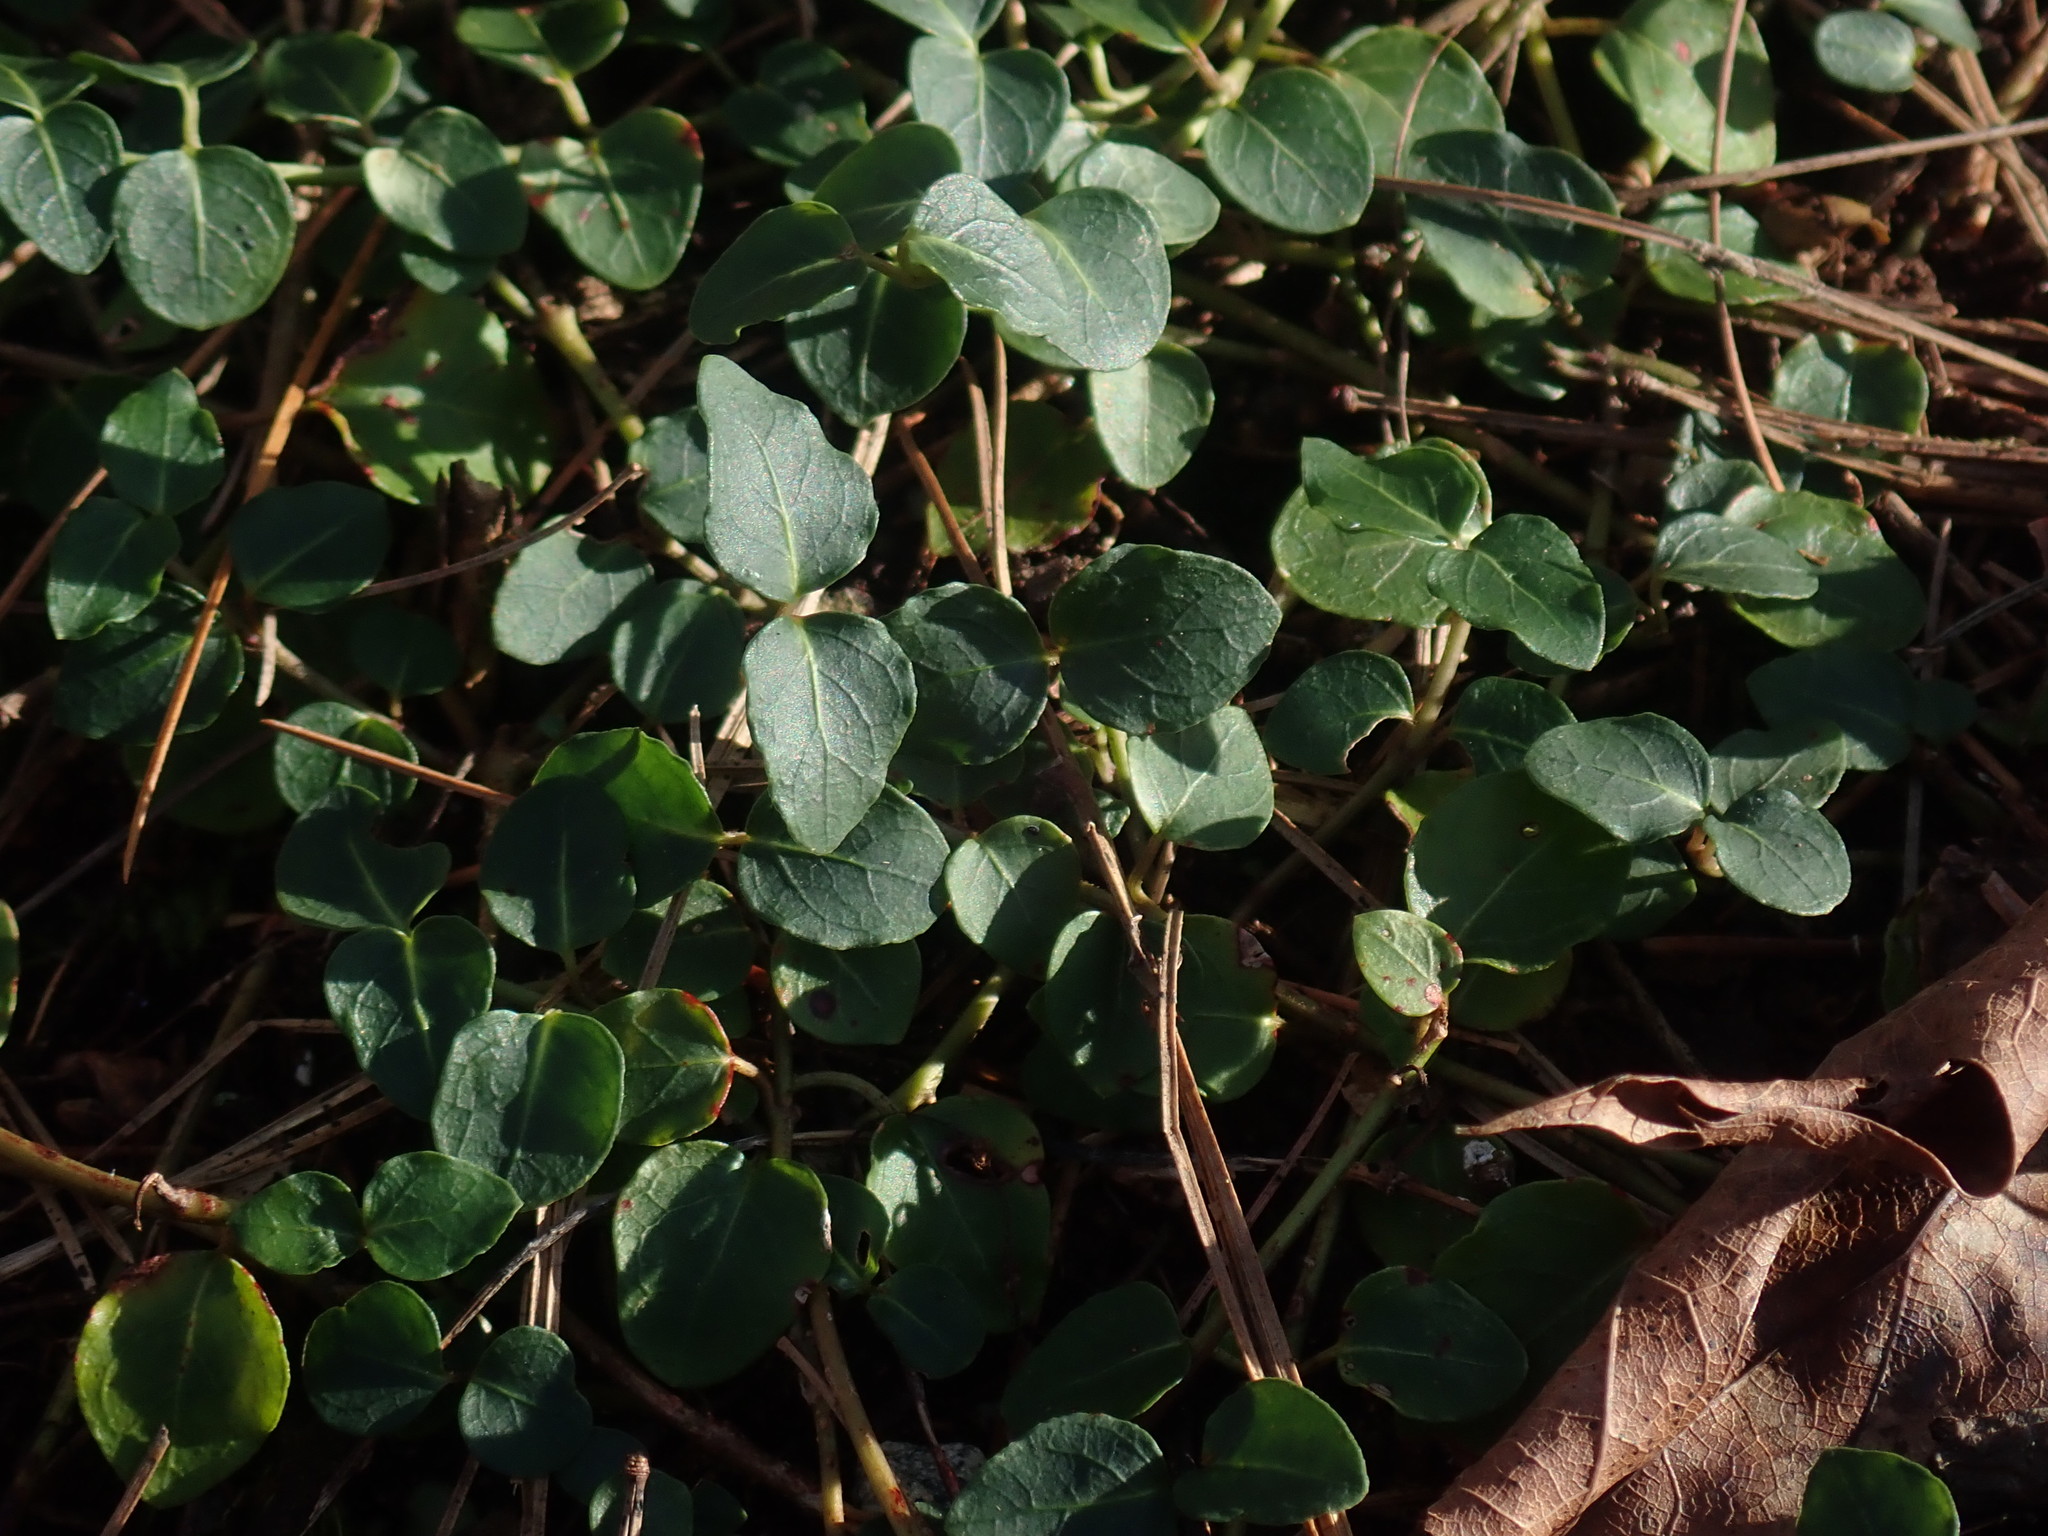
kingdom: Plantae
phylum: Tracheophyta
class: Magnoliopsida
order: Gentianales
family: Rubiaceae
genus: Mitchella
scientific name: Mitchella repens
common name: Partridge-berry
